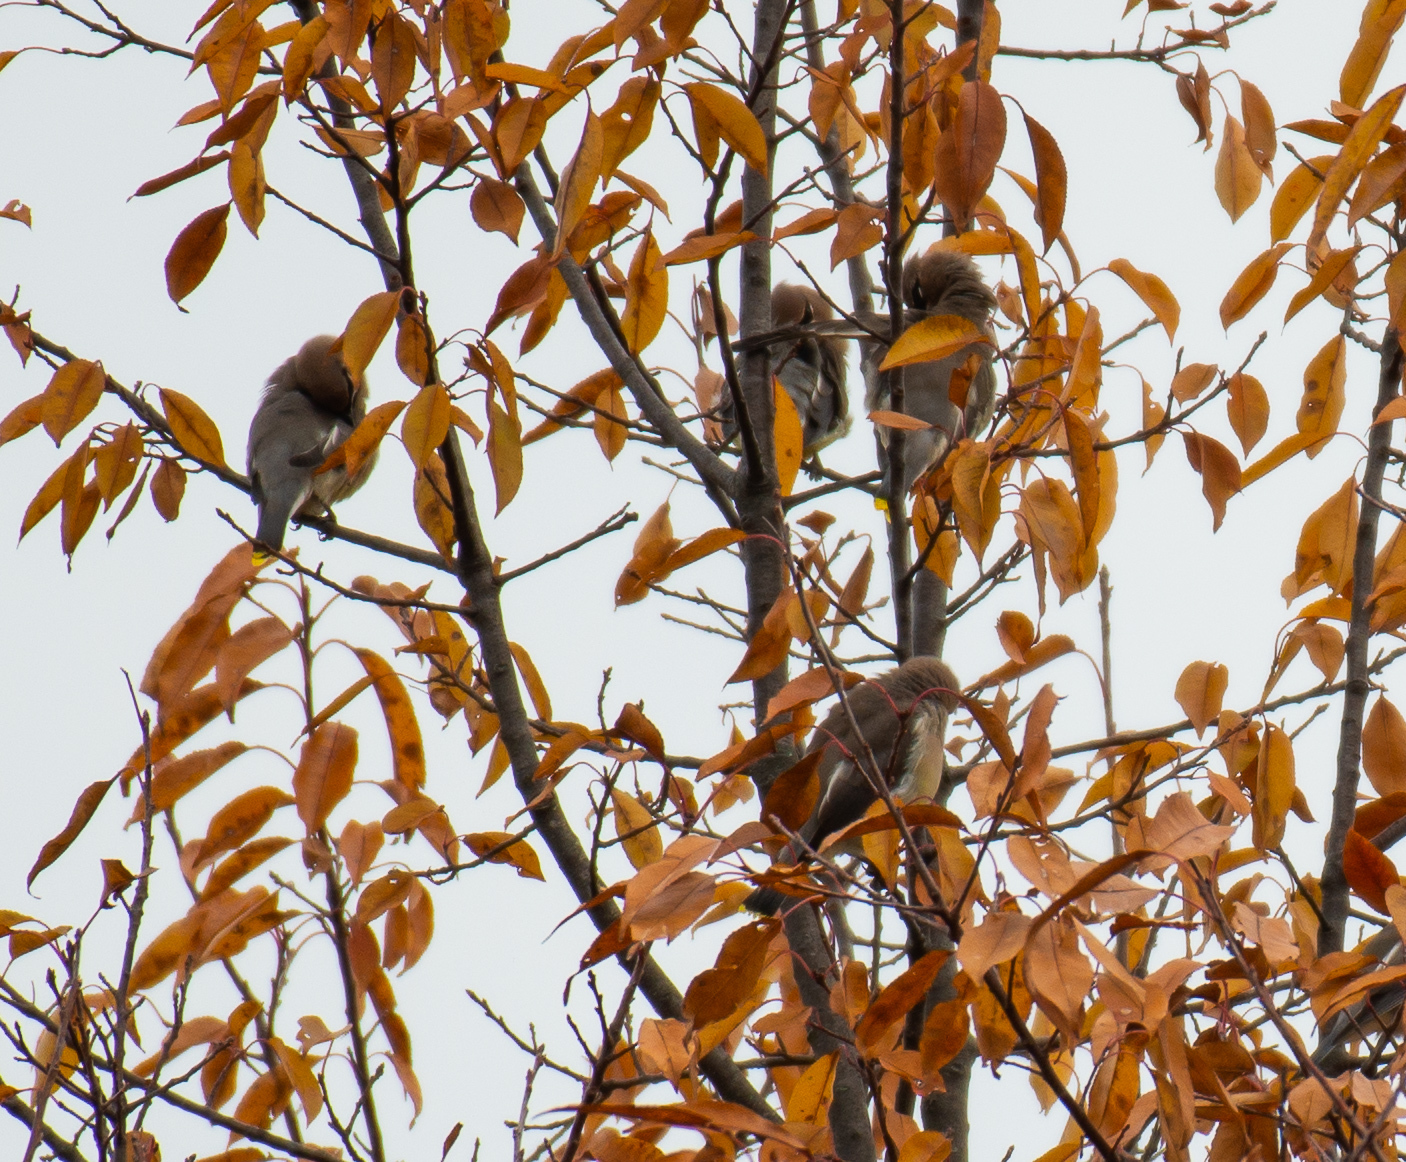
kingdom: Animalia
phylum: Chordata
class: Aves
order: Passeriformes
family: Bombycillidae
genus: Bombycilla
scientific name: Bombycilla cedrorum
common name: Cedar waxwing
